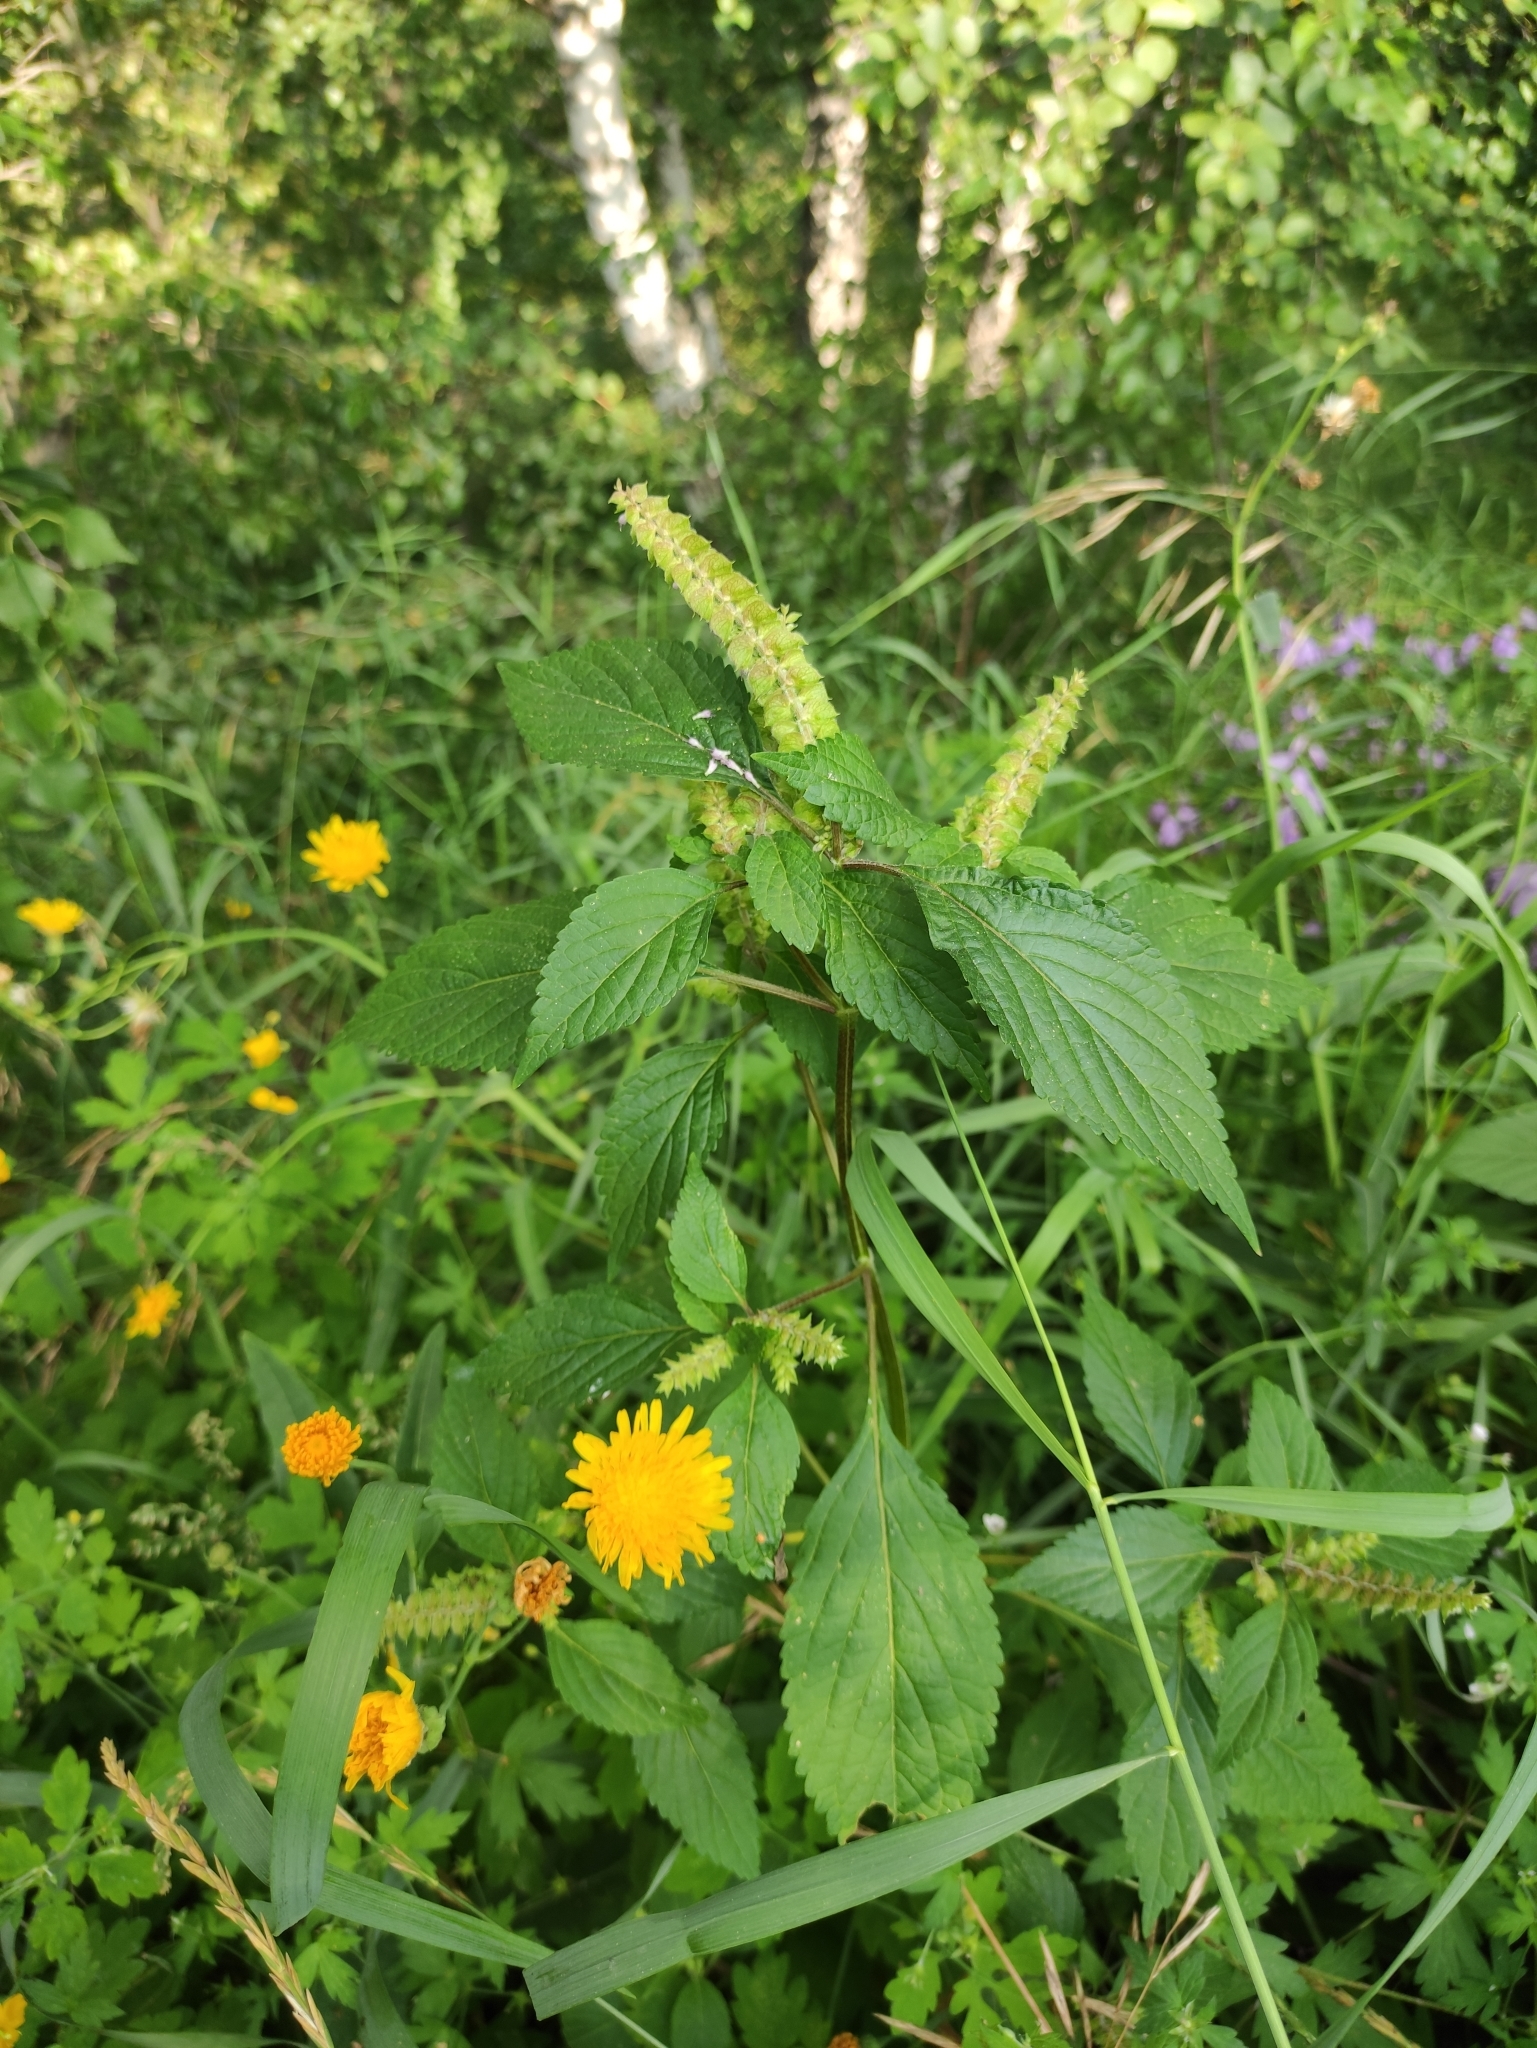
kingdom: Plantae
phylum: Tracheophyta
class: Magnoliopsida
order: Lamiales
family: Lamiaceae
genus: Elsholtzia
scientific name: Elsholtzia ciliata
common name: Ciliate elsholtzia
